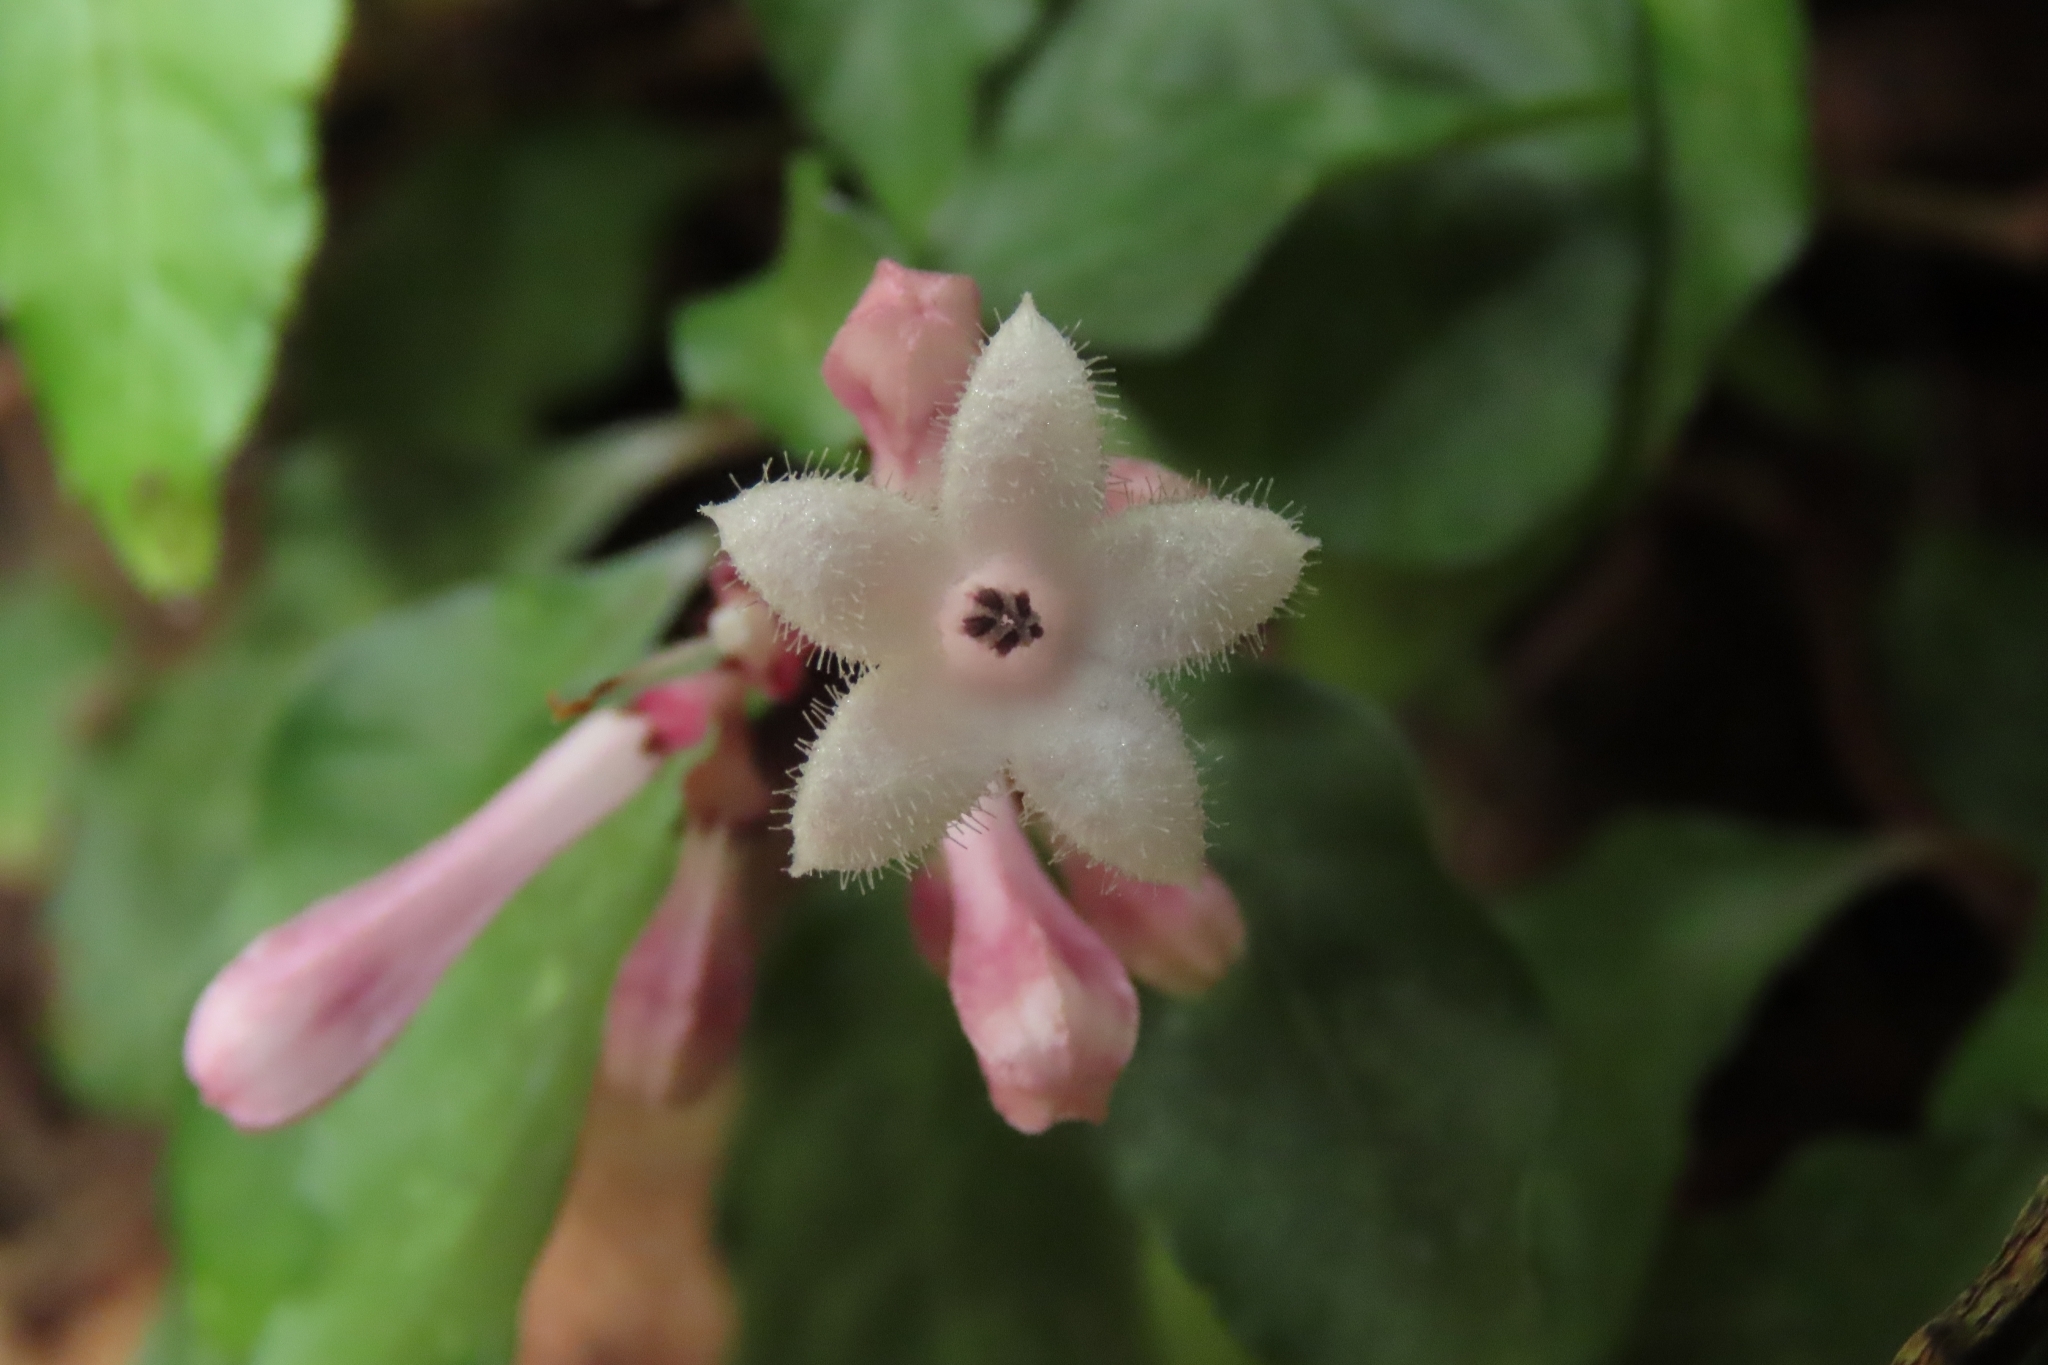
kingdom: Plantae
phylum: Tracheophyta
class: Magnoliopsida
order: Gentianales
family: Rubiaceae
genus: Ophiorrhiza
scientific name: Ophiorrhiza japonica
